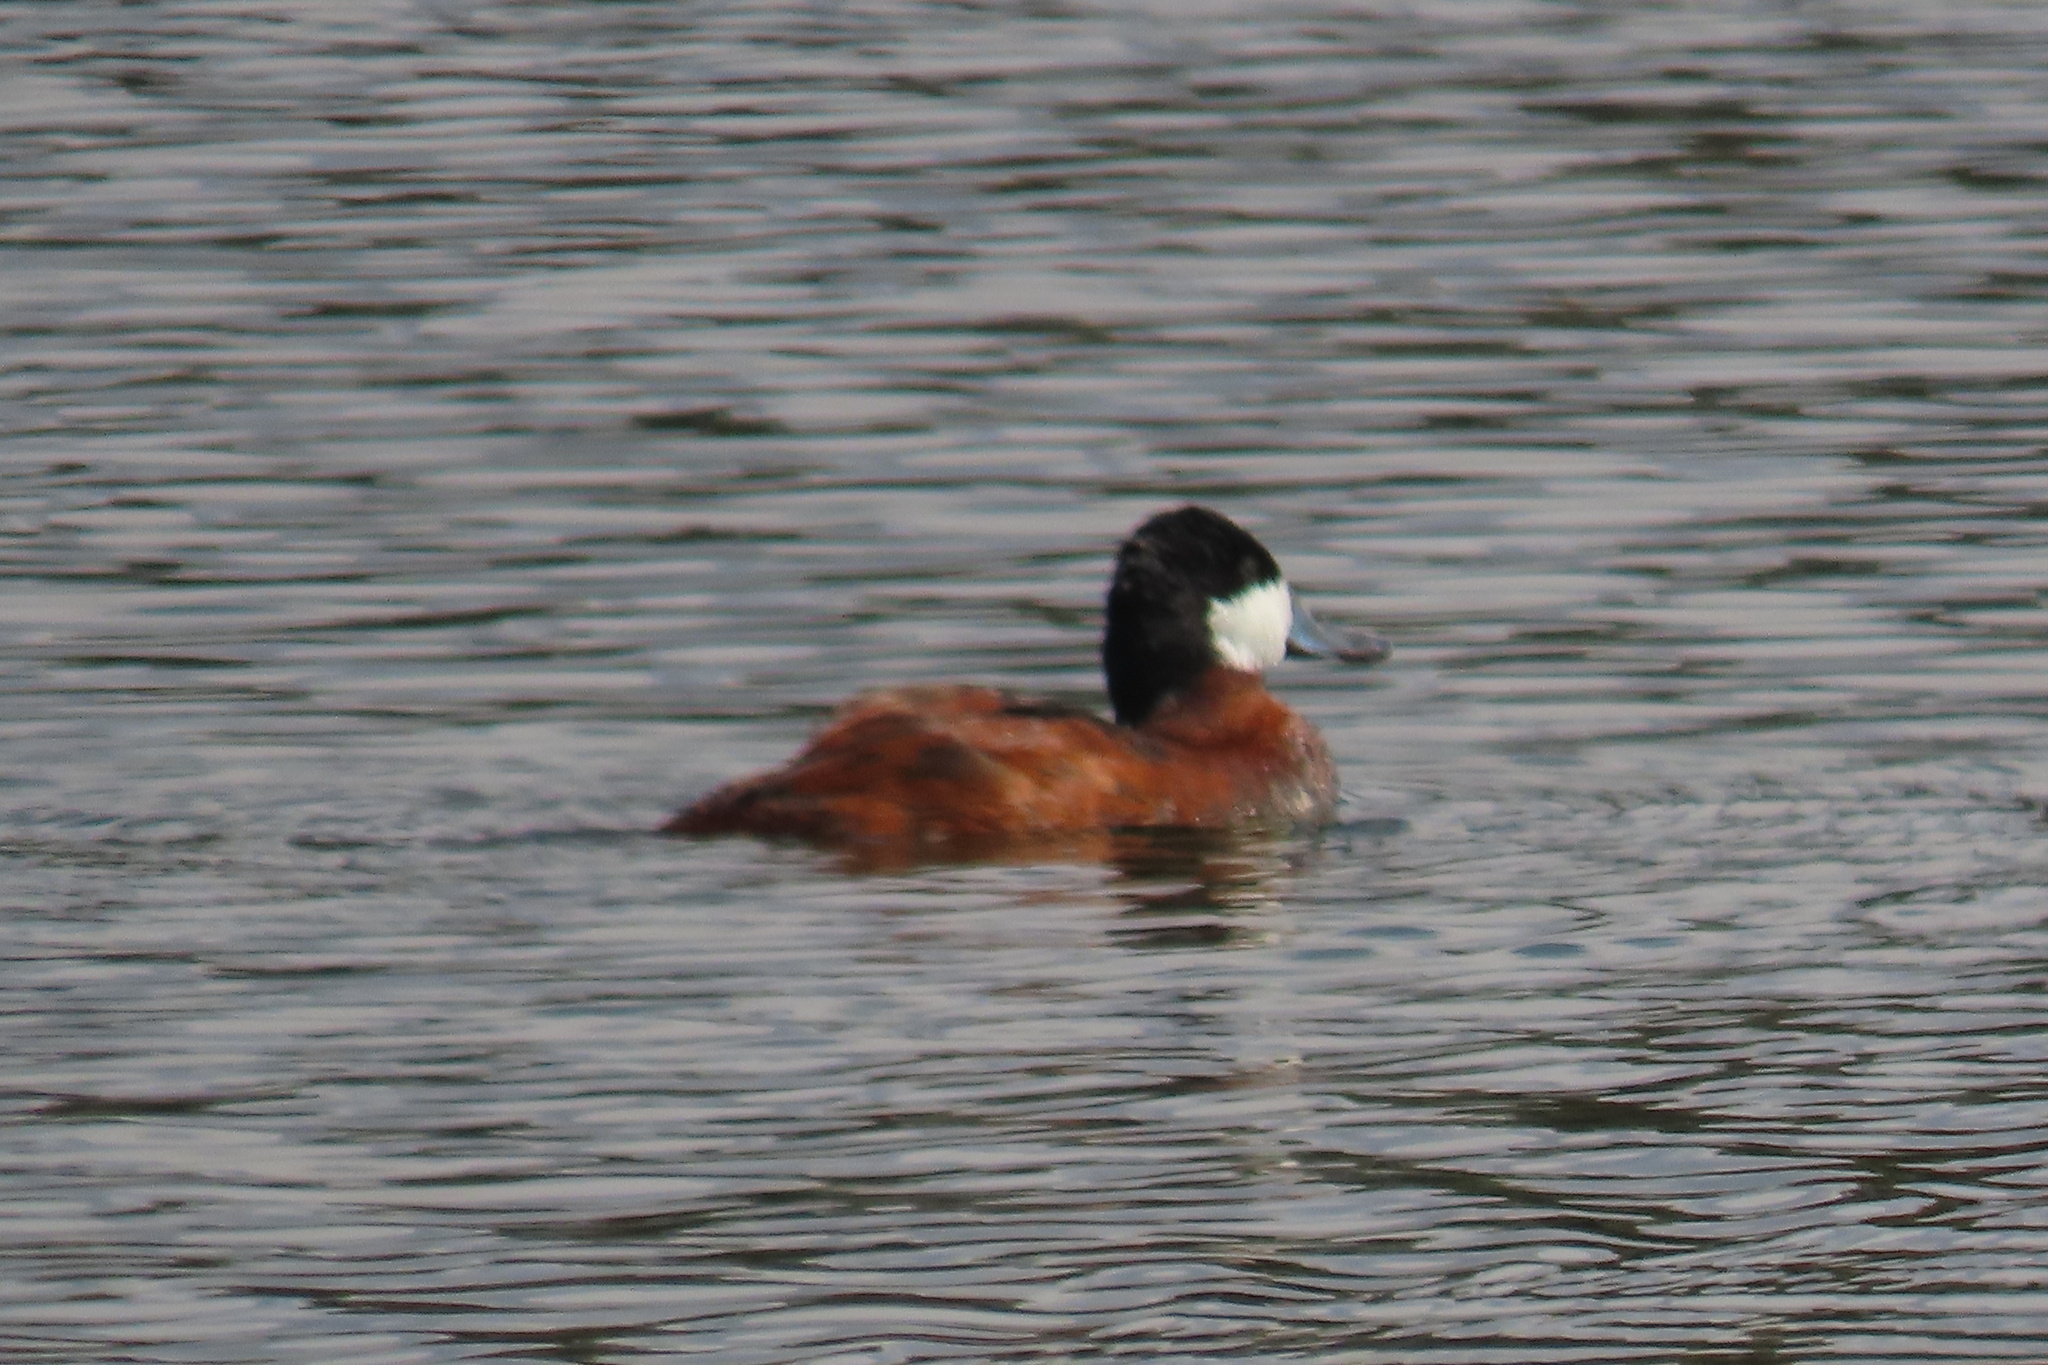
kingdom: Animalia
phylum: Chordata
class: Aves
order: Anseriformes
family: Anatidae
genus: Oxyura
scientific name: Oxyura jamaicensis
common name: Ruddy duck
